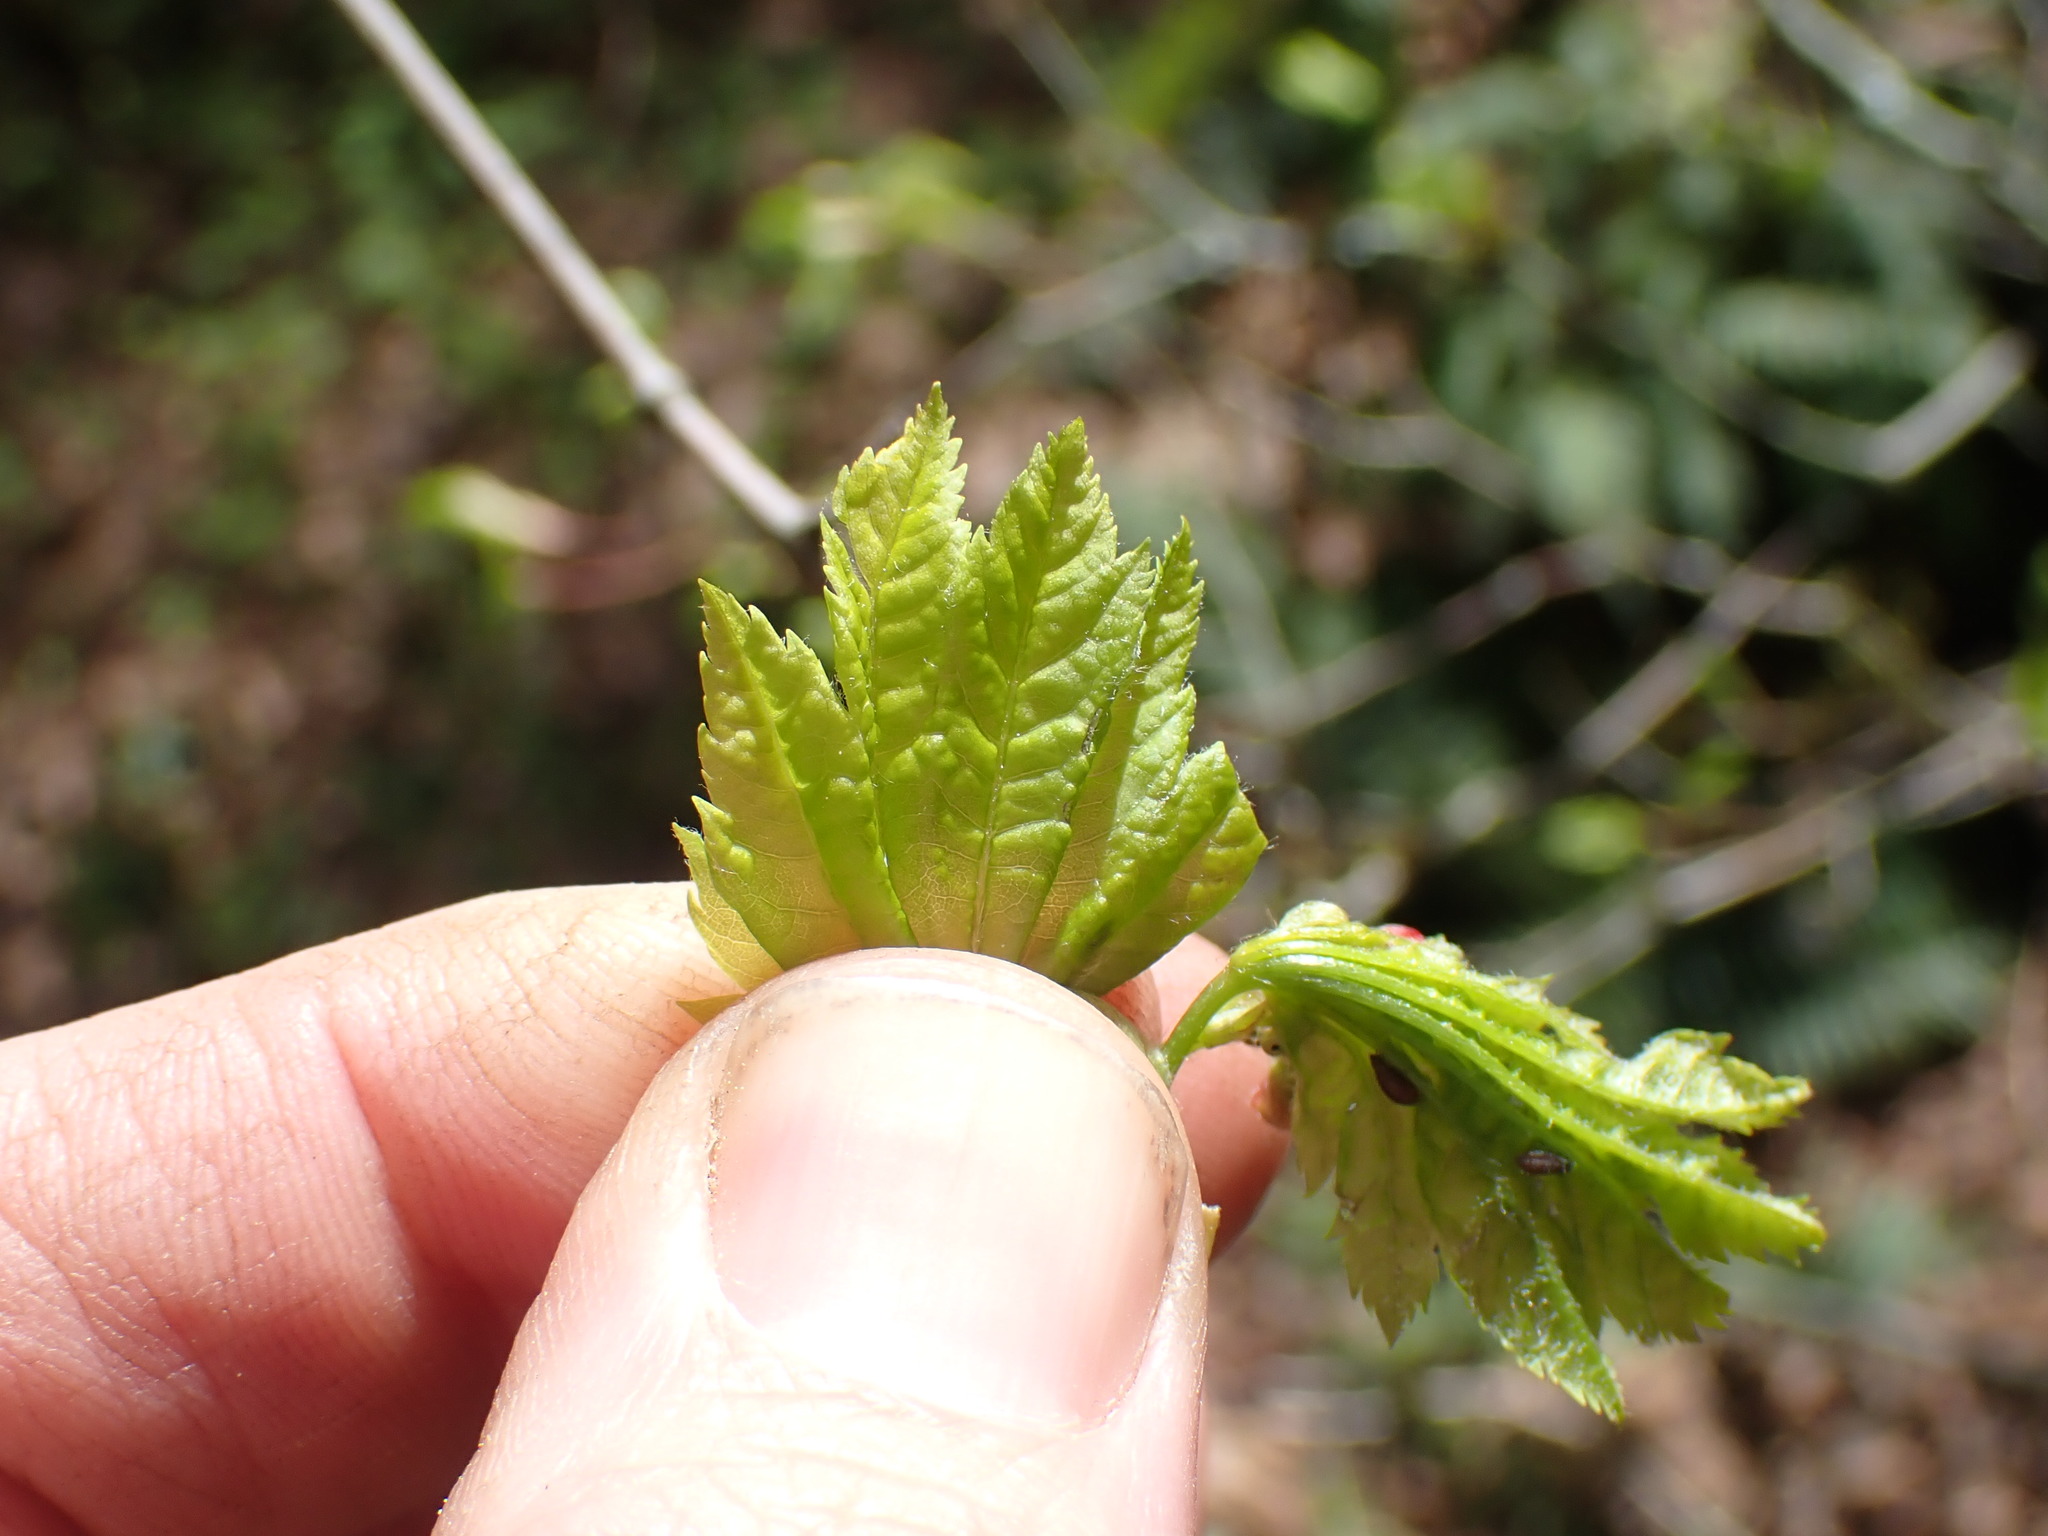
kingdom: Plantae
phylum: Tracheophyta
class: Magnoliopsida
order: Sapindales
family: Sapindaceae
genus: Acer
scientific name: Acer circinatum
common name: Vine maple
